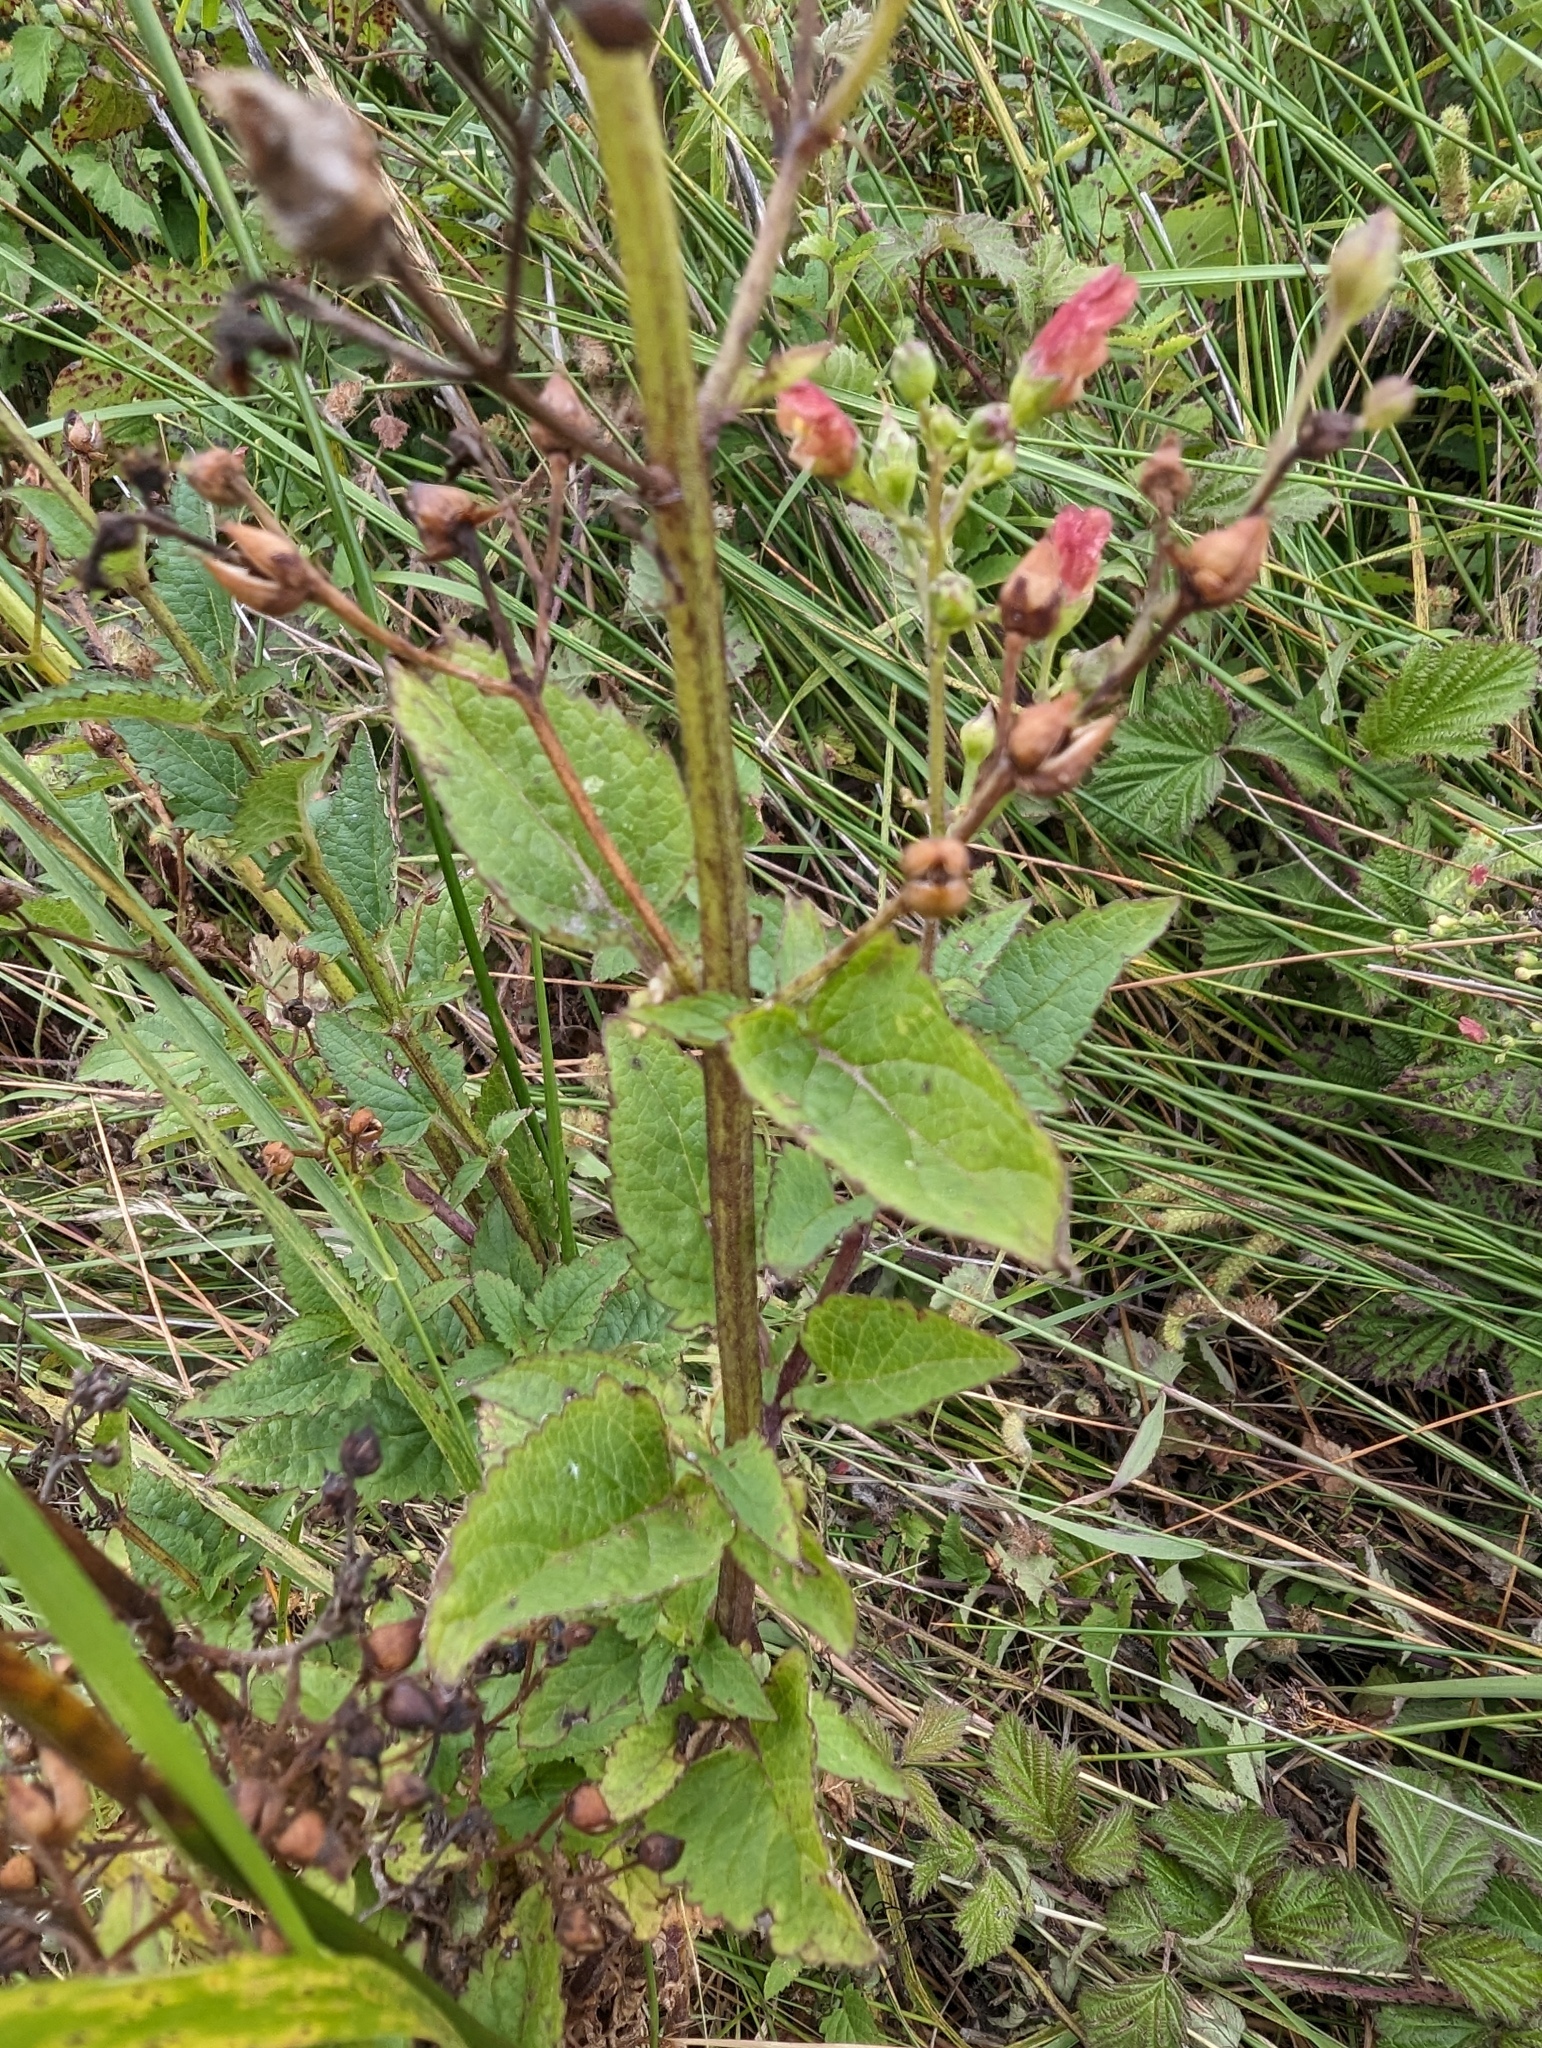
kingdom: Plantae
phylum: Tracheophyta
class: Magnoliopsida
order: Lamiales
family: Scrophulariaceae
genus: Scrophularia
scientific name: Scrophularia californica
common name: California figwort
